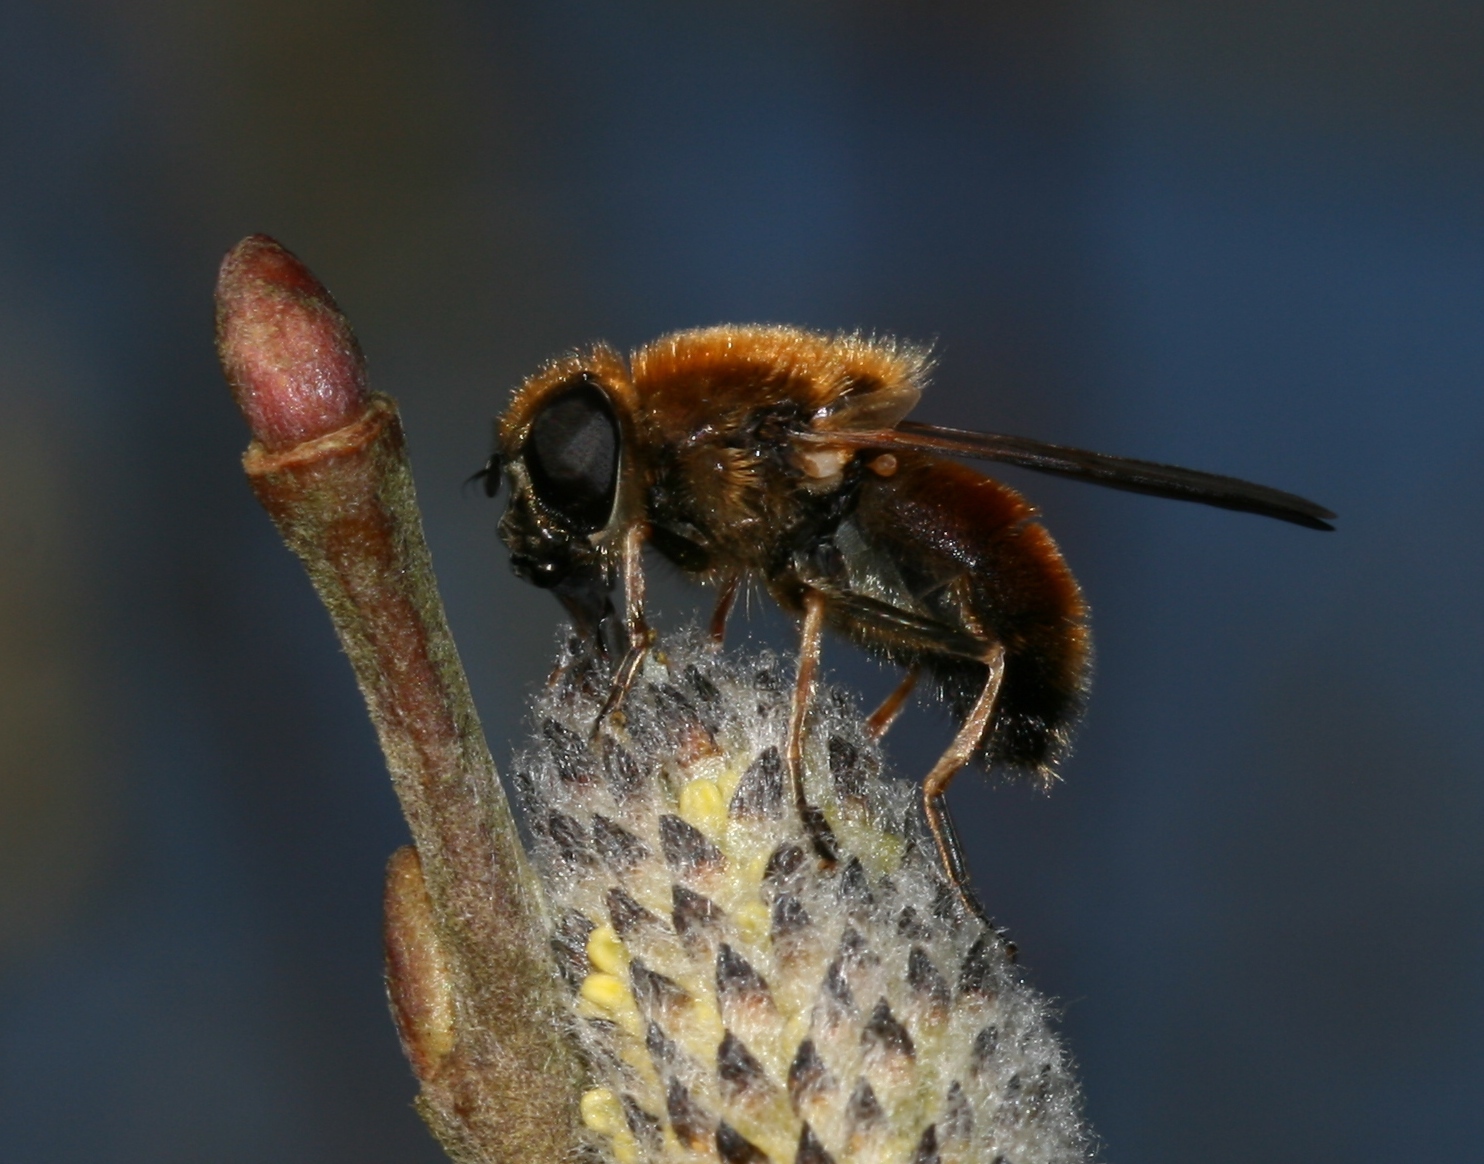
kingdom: Animalia
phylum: Arthropoda
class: Insecta
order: Diptera
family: Syrphidae
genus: Cheilosia
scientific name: Cheilosia corydon
